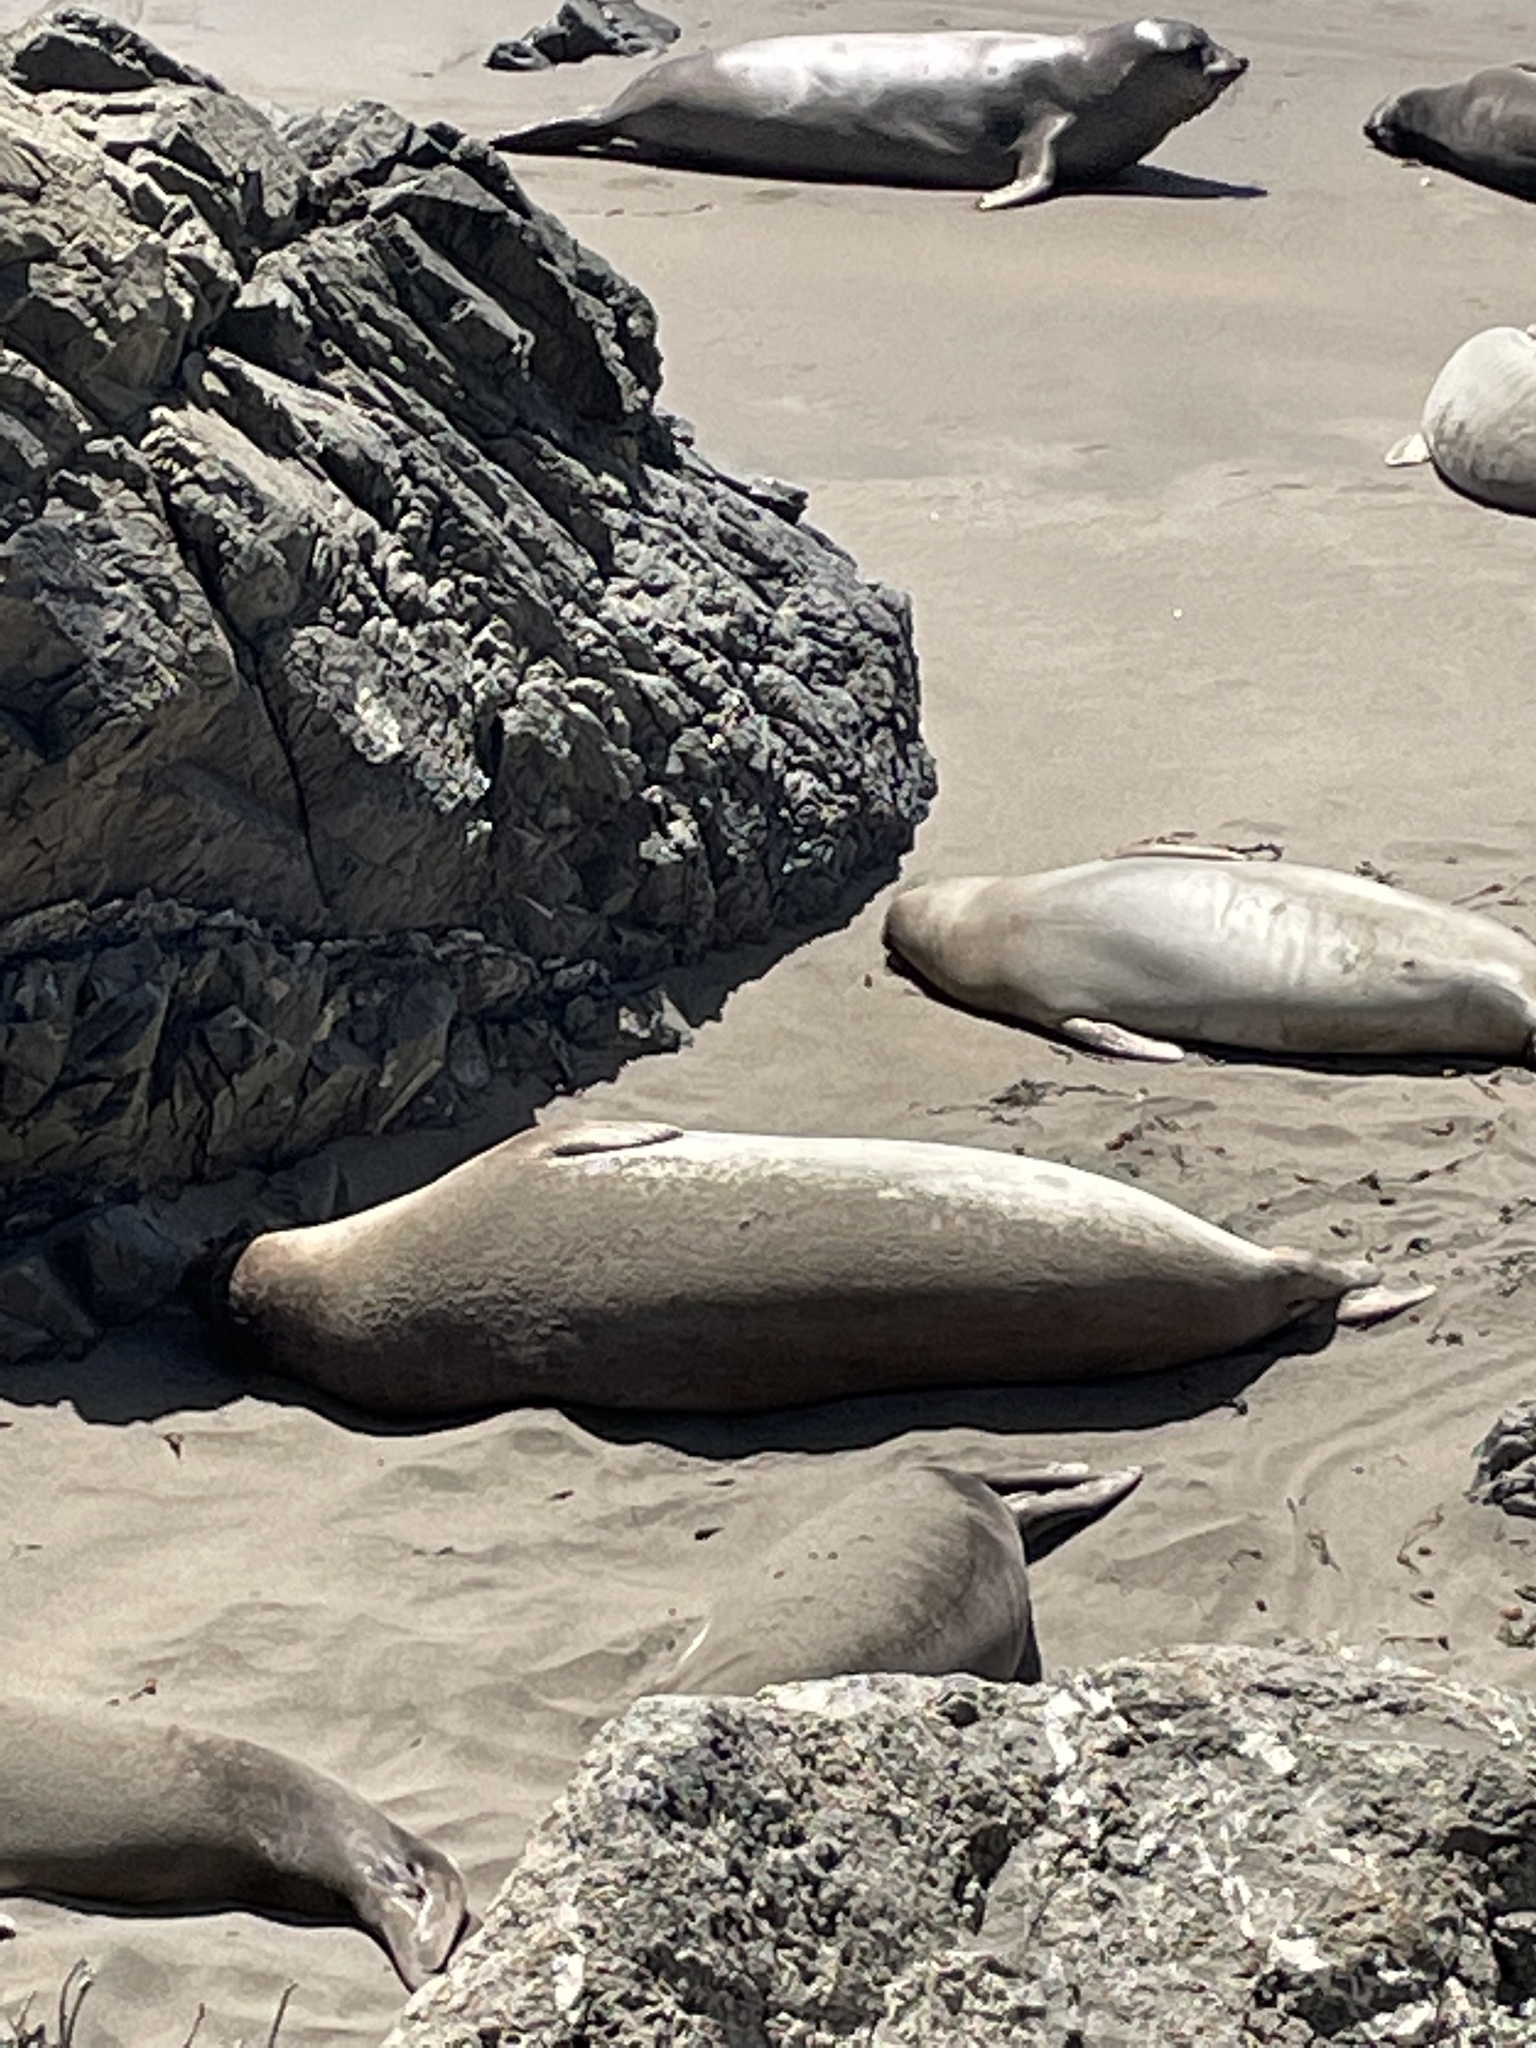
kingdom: Animalia
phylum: Chordata
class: Mammalia
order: Carnivora
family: Phocidae
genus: Mirounga
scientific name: Mirounga angustirostris
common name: Northern elephant seal
